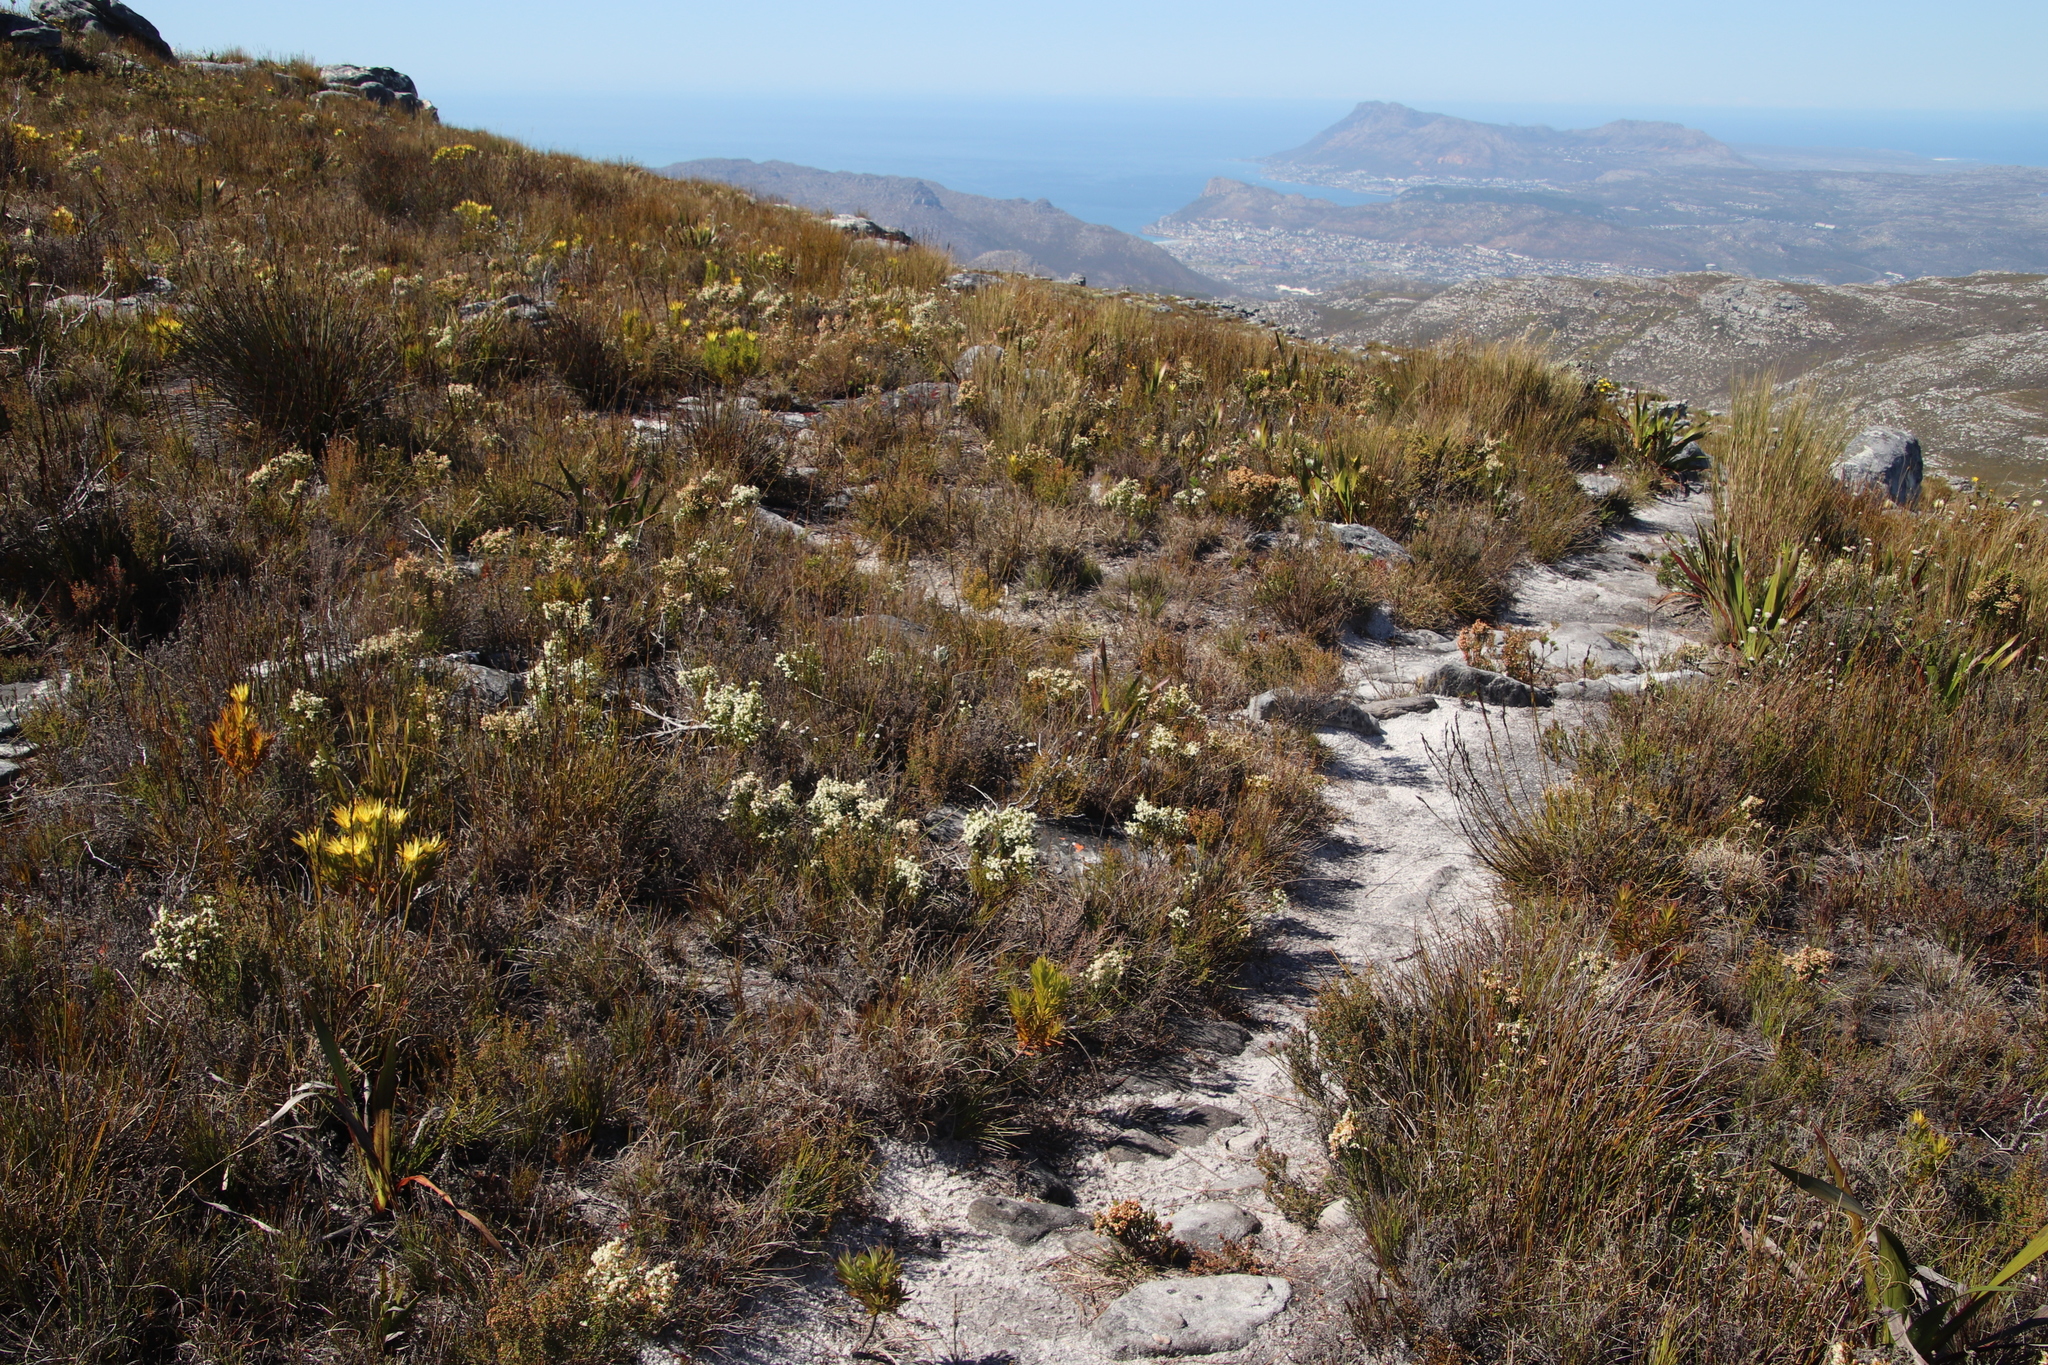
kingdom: Plantae
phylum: Tracheophyta
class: Magnoliopsida
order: Ericales
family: Ericaceae
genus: Erica
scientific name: Erica lutea
